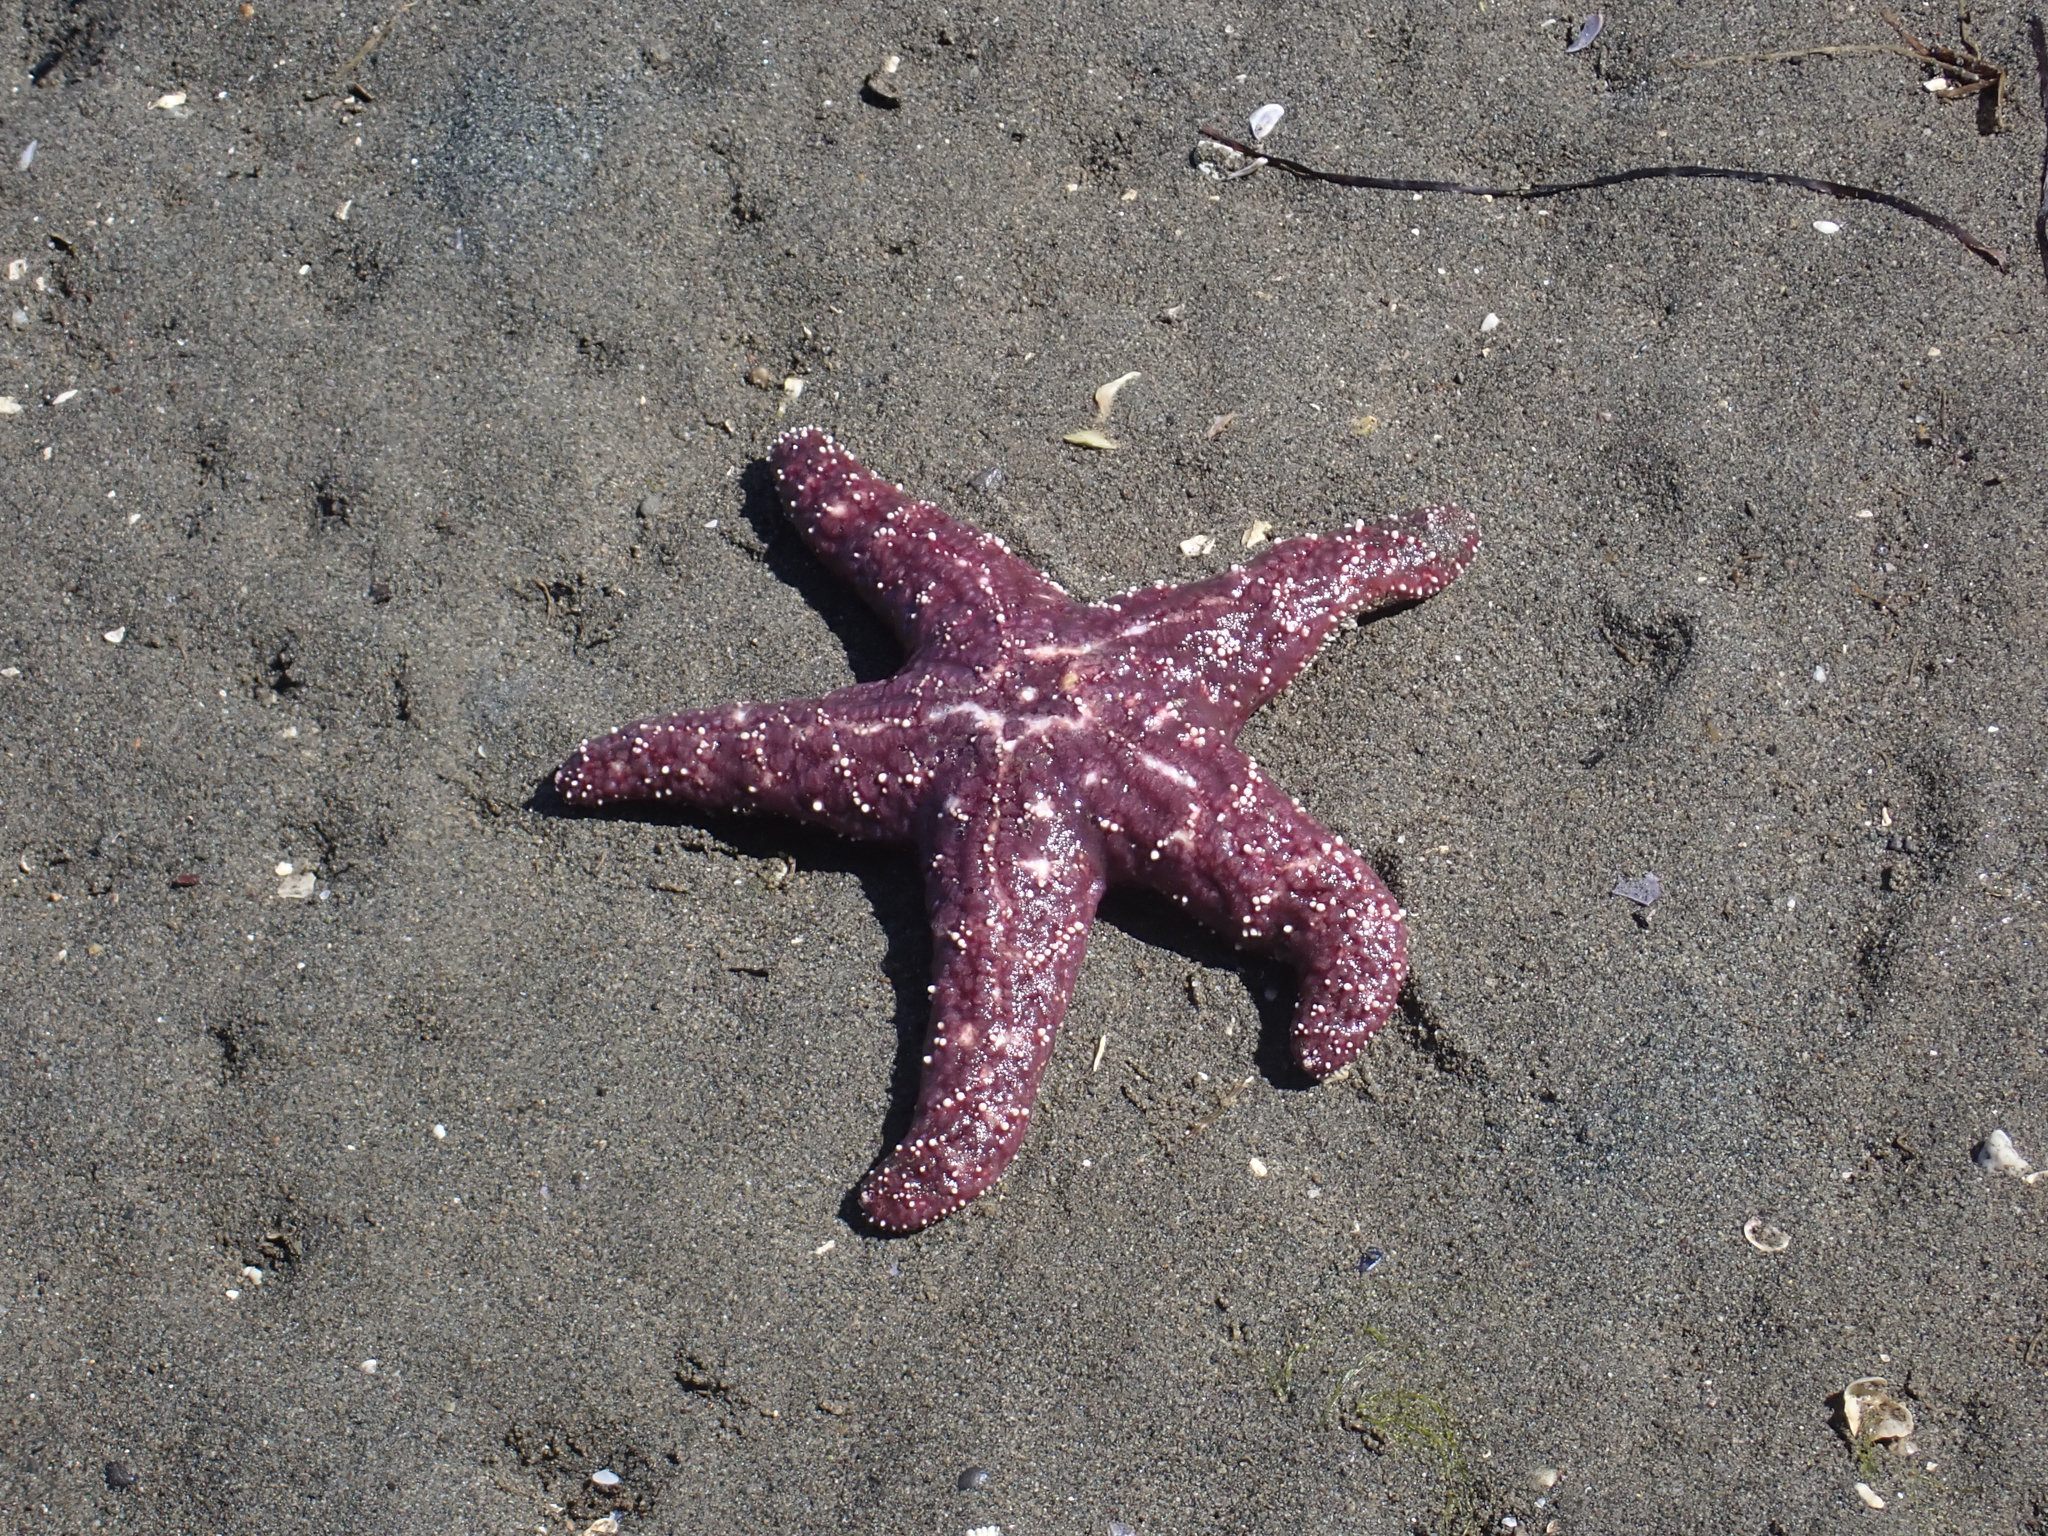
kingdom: Animalia
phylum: Echinodermata
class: Asteroidea
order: Forcipulatida
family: Asteriidae
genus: Pisaster
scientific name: Pisaster ochraceus
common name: Ochre stars
